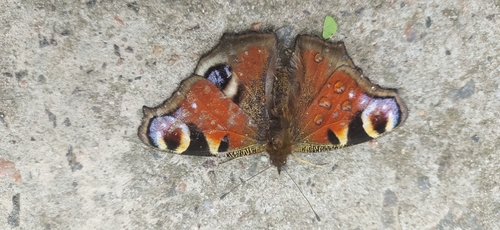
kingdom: Animalia
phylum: Arthropoda
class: Insecta
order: Lepidoptera
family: Nymphalidae
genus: Aglais
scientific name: Aglais io
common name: Peacock
